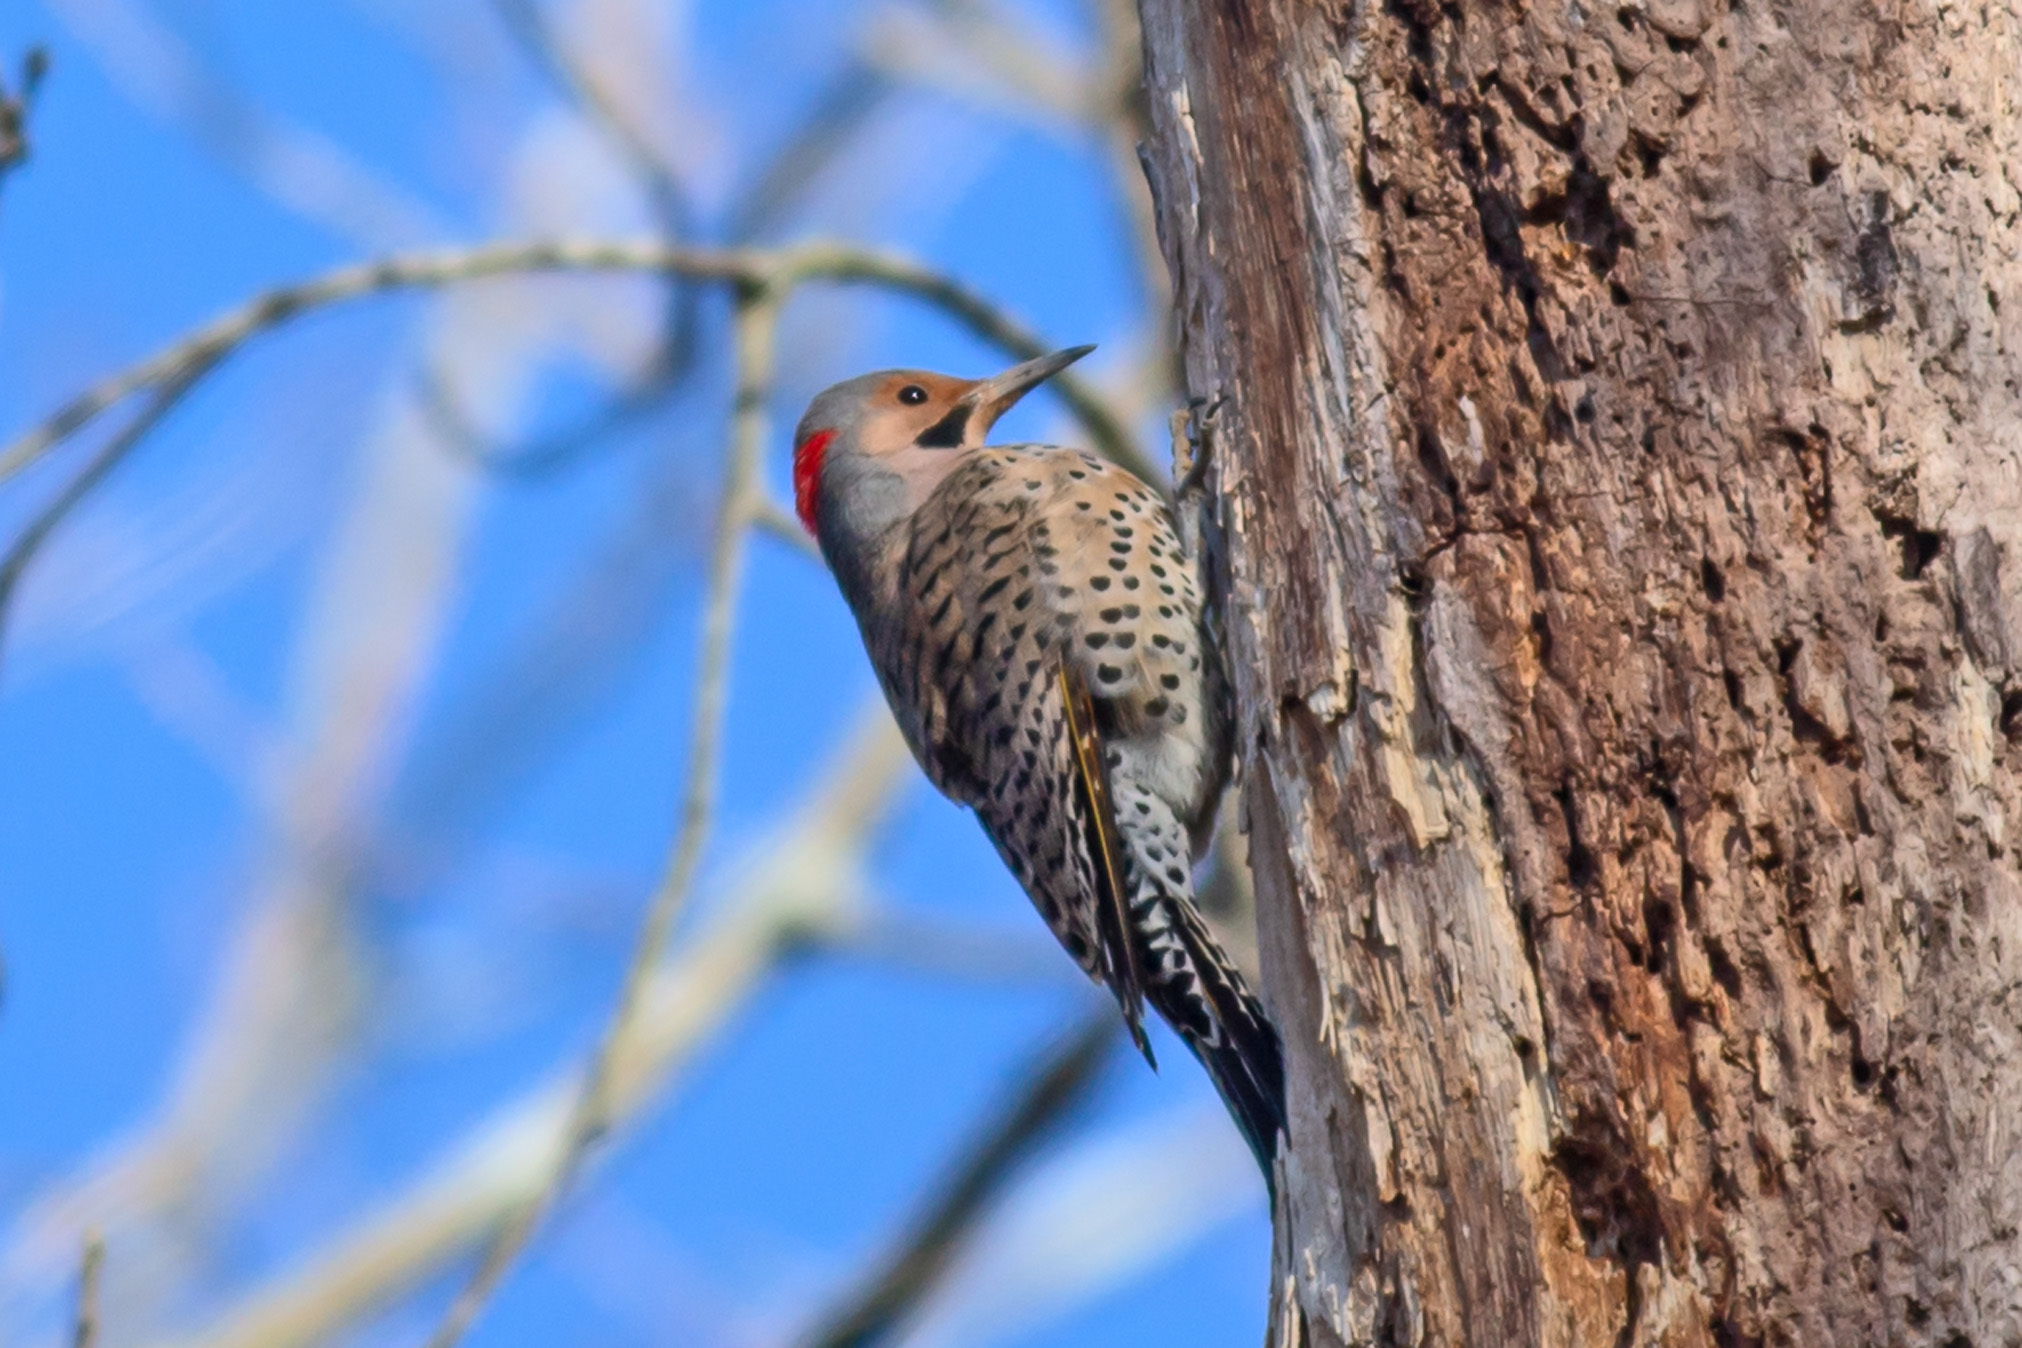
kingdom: Animalia
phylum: Chordata
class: Aves
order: Piciformes
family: Picidae
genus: Colaptes
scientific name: Colaptes auratus
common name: Northern flicker
